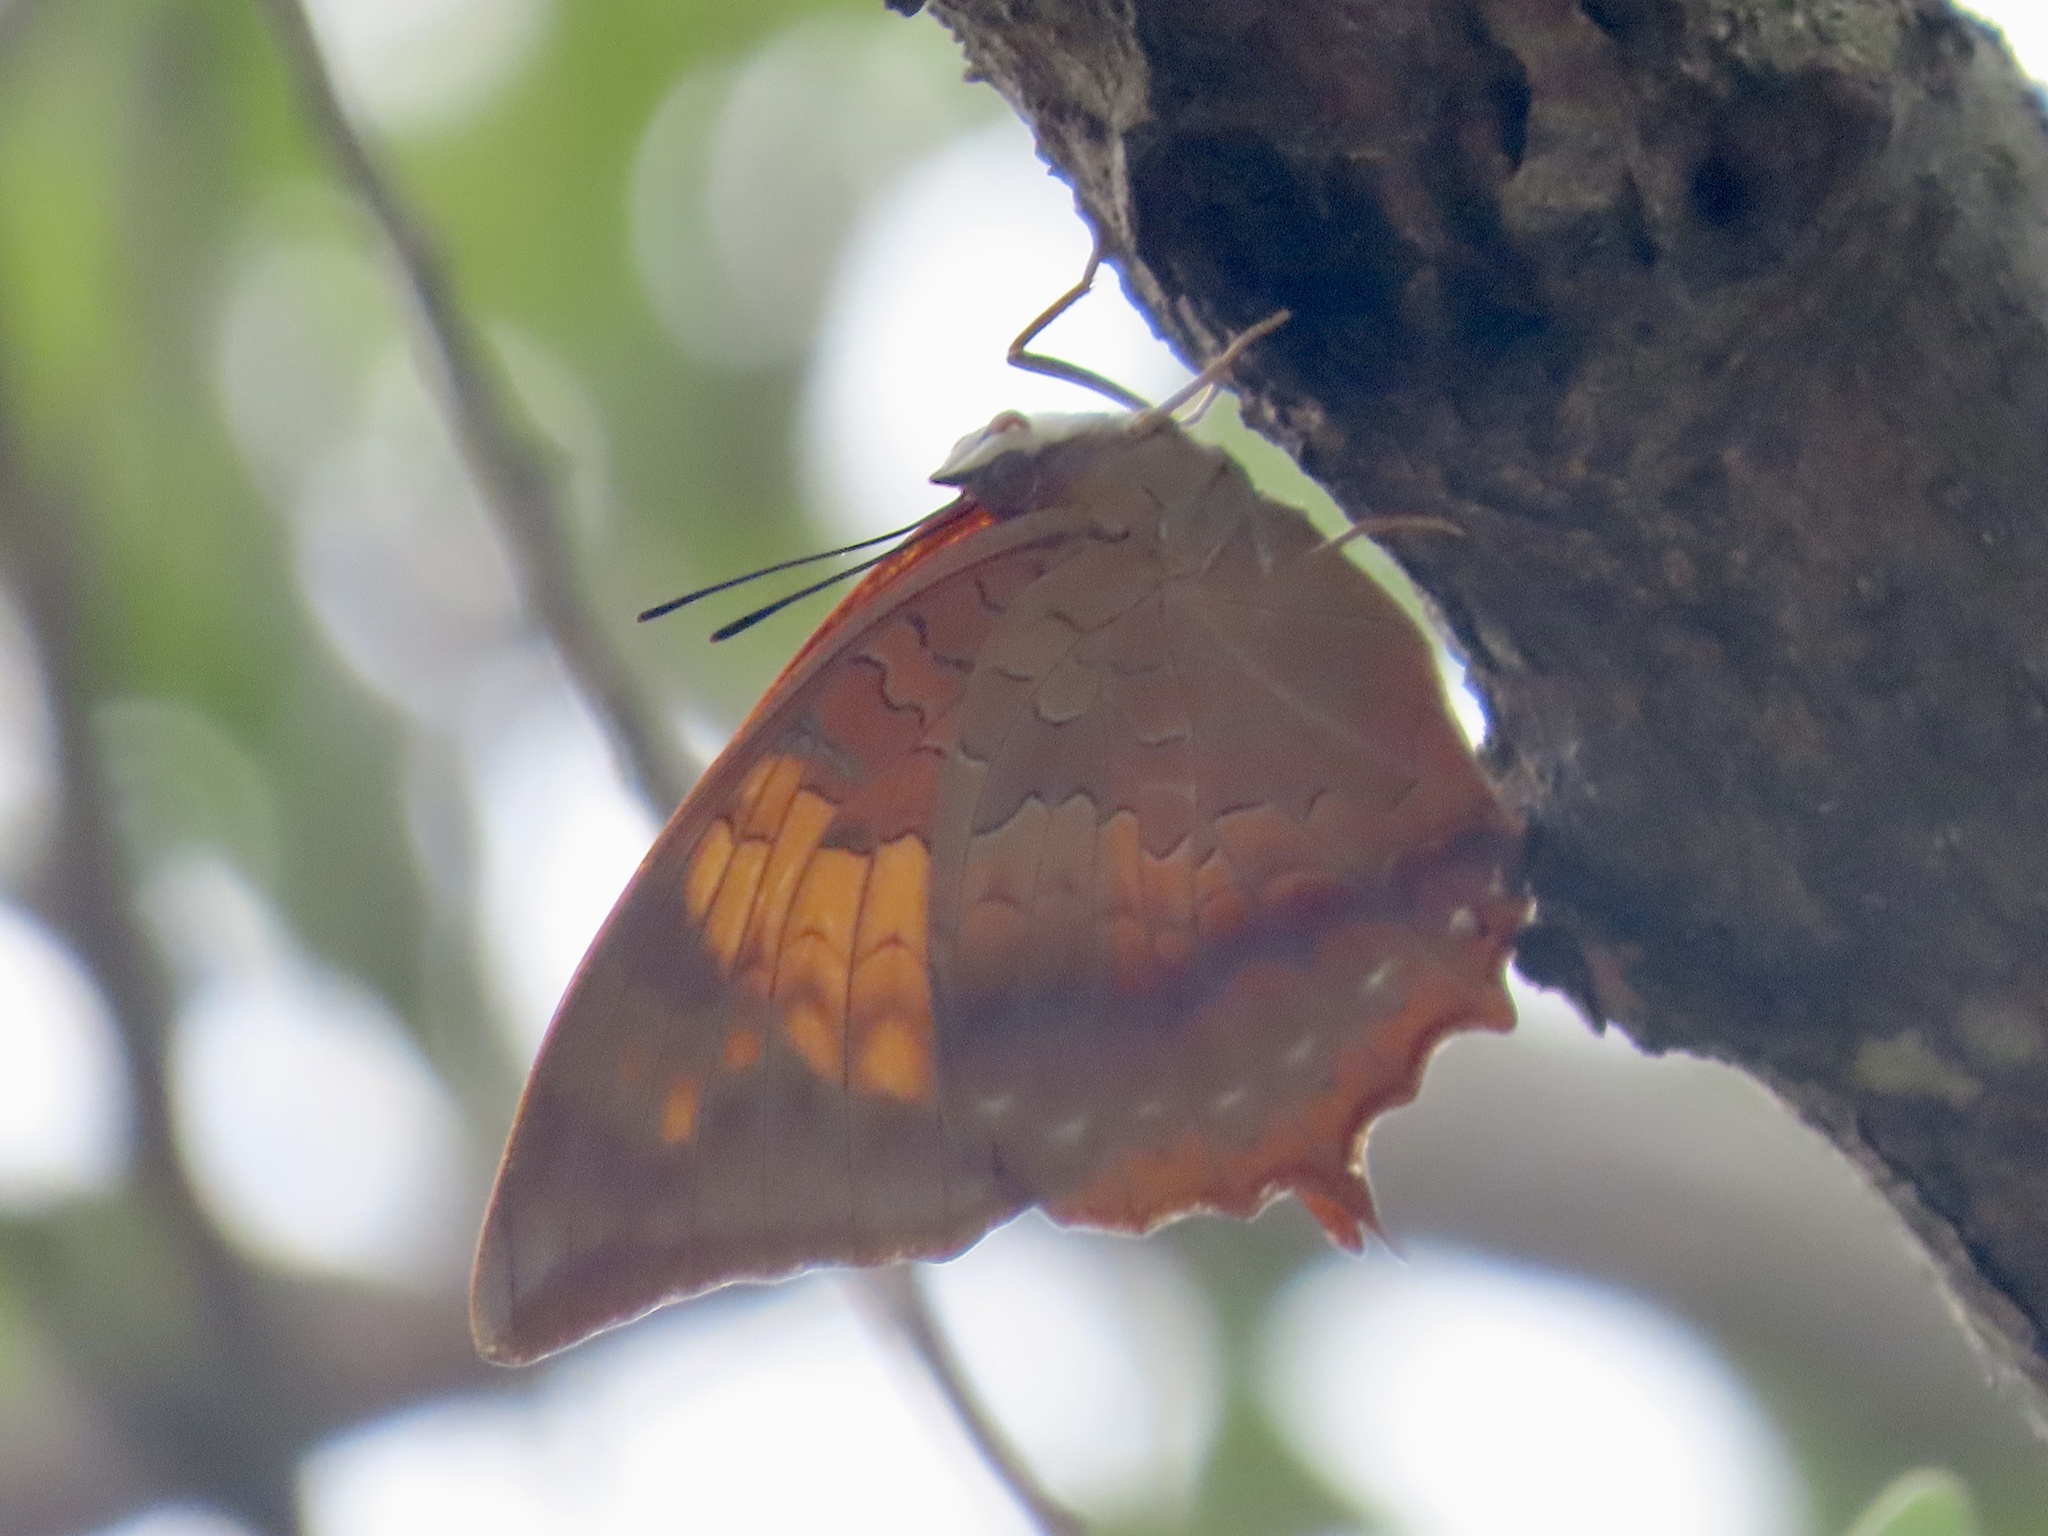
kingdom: Animalia
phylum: Arthropoda
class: Insecta
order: Lepidoptera
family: Nymphalidae
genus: Charaxes
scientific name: Charaxes bernardus
